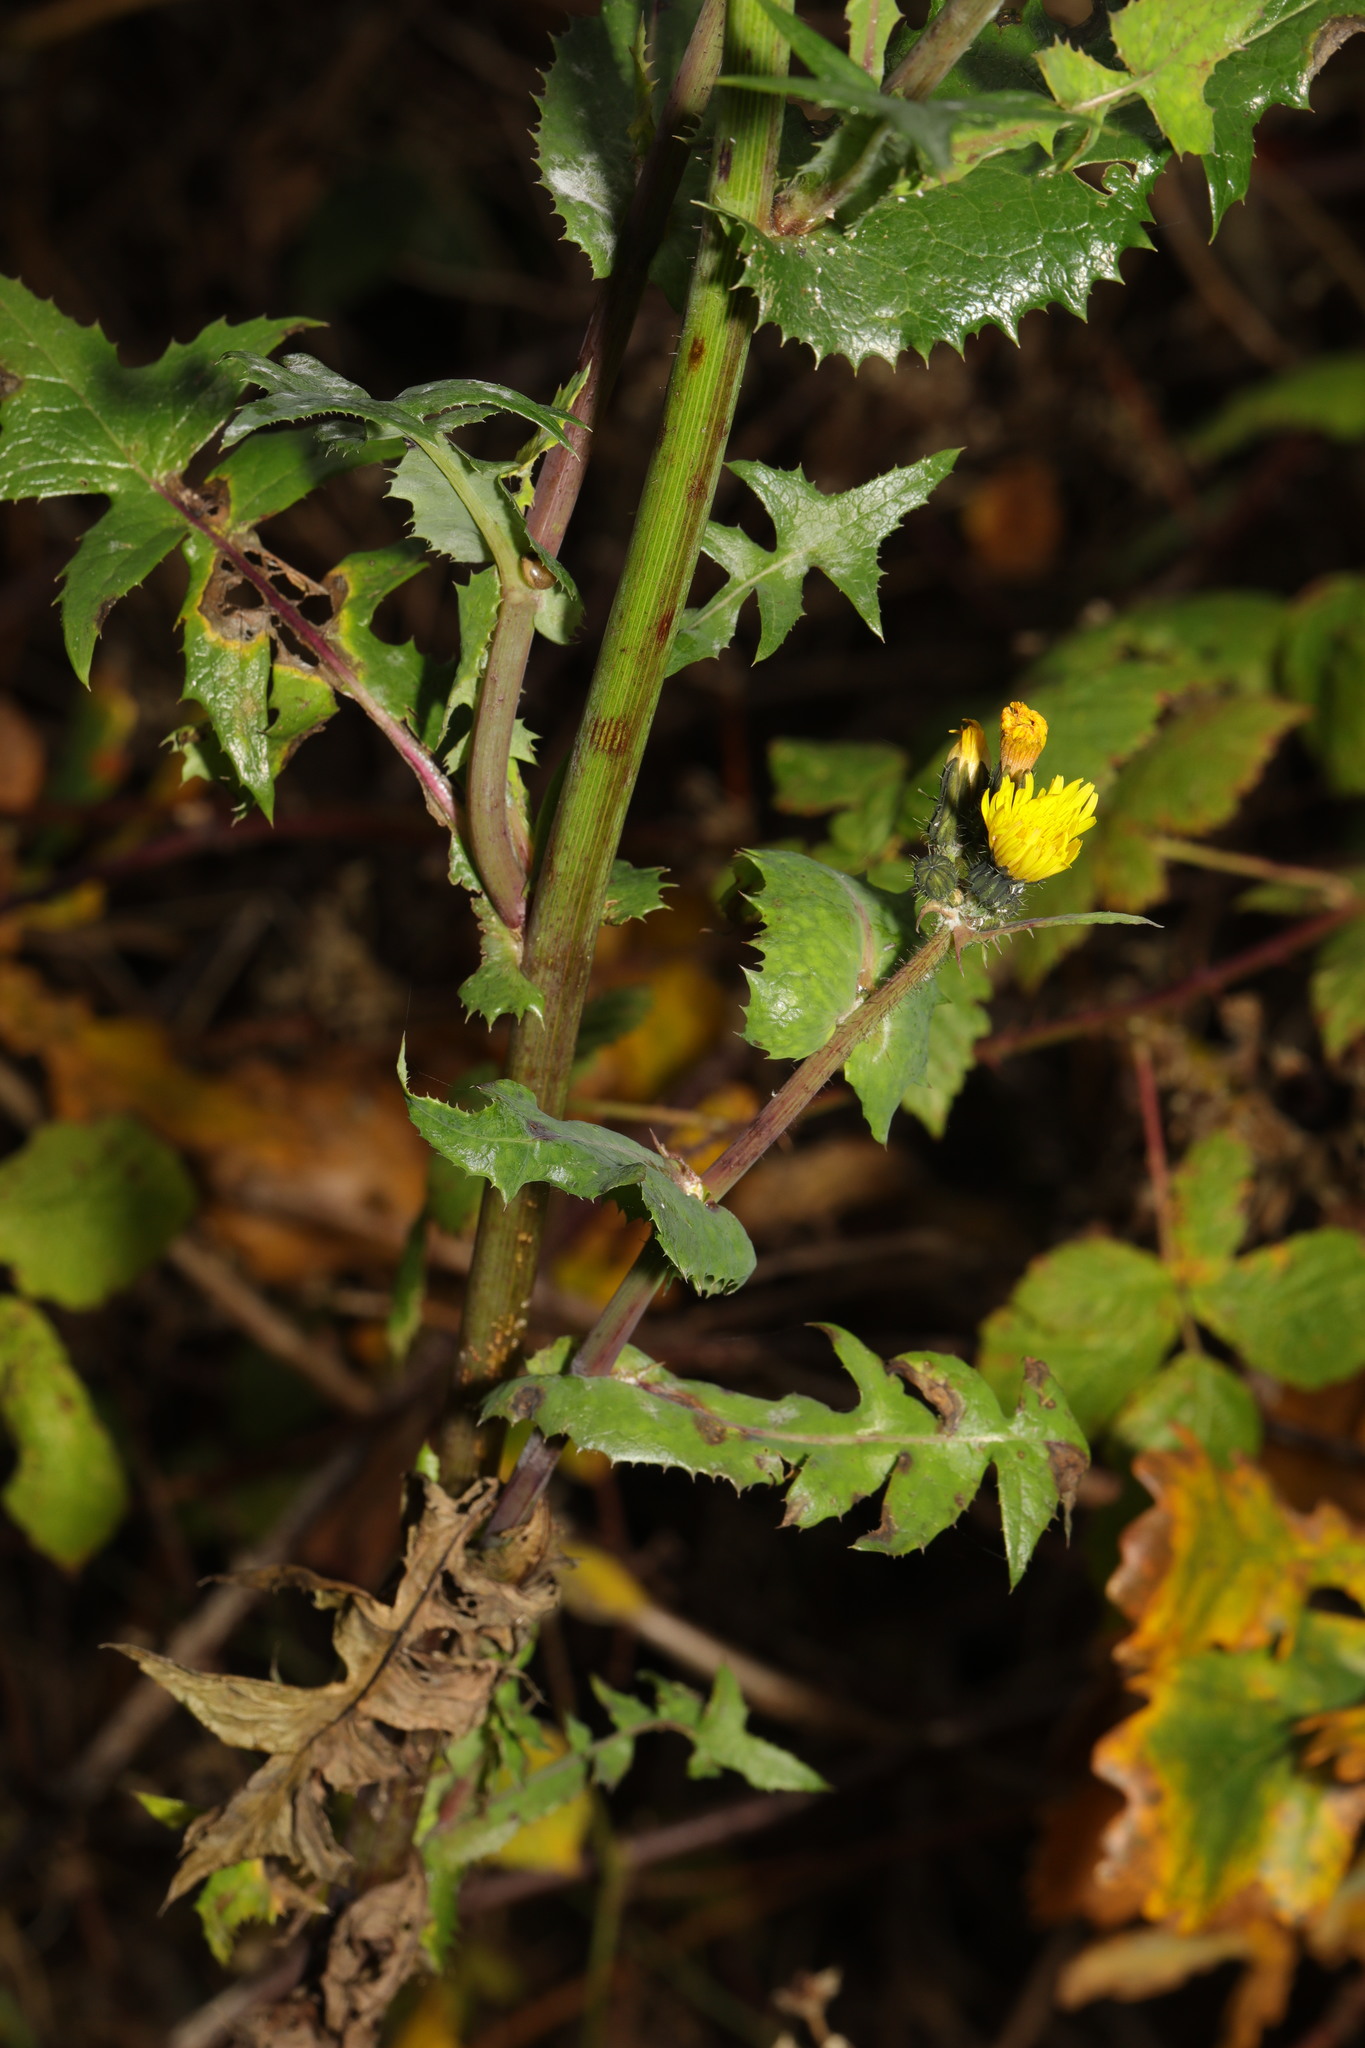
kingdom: Plantae
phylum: Tracheophyta
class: Magnoliopsida
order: Asterales
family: Asteraceae
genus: Sonchus
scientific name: Sonchus oleraceus
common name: Common sowthistle
